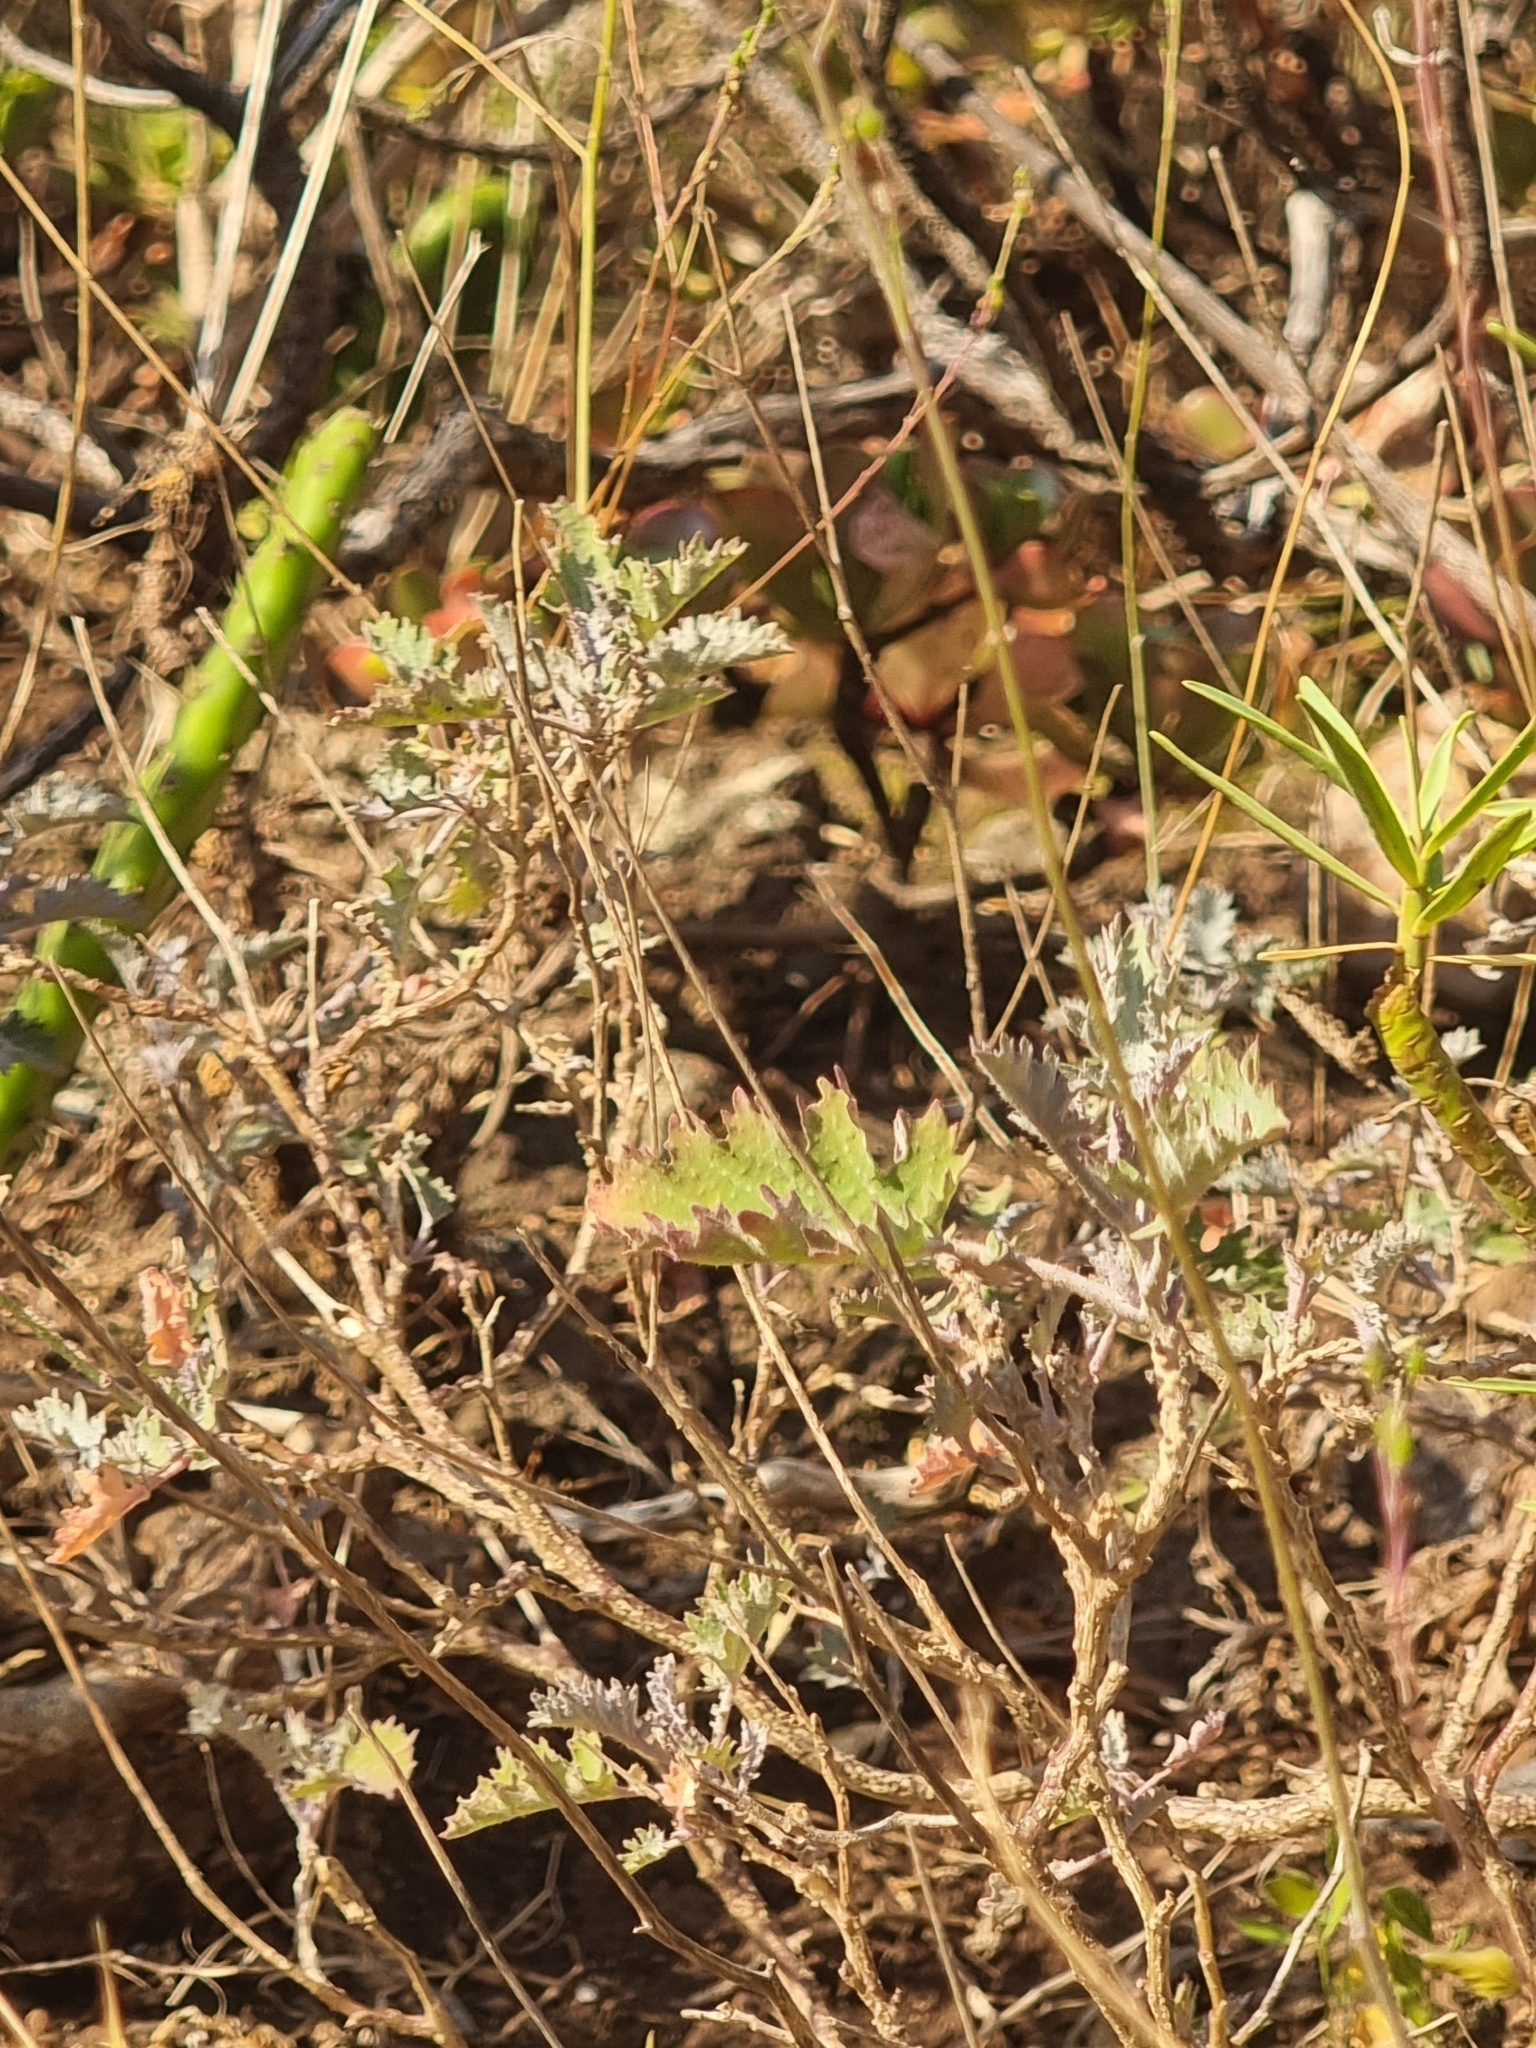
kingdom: Plantae
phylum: Tracheophyta
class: Magnoliopsida
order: Brassicales
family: Brassicaceae
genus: Crambe
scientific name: Crambe fruticosa
